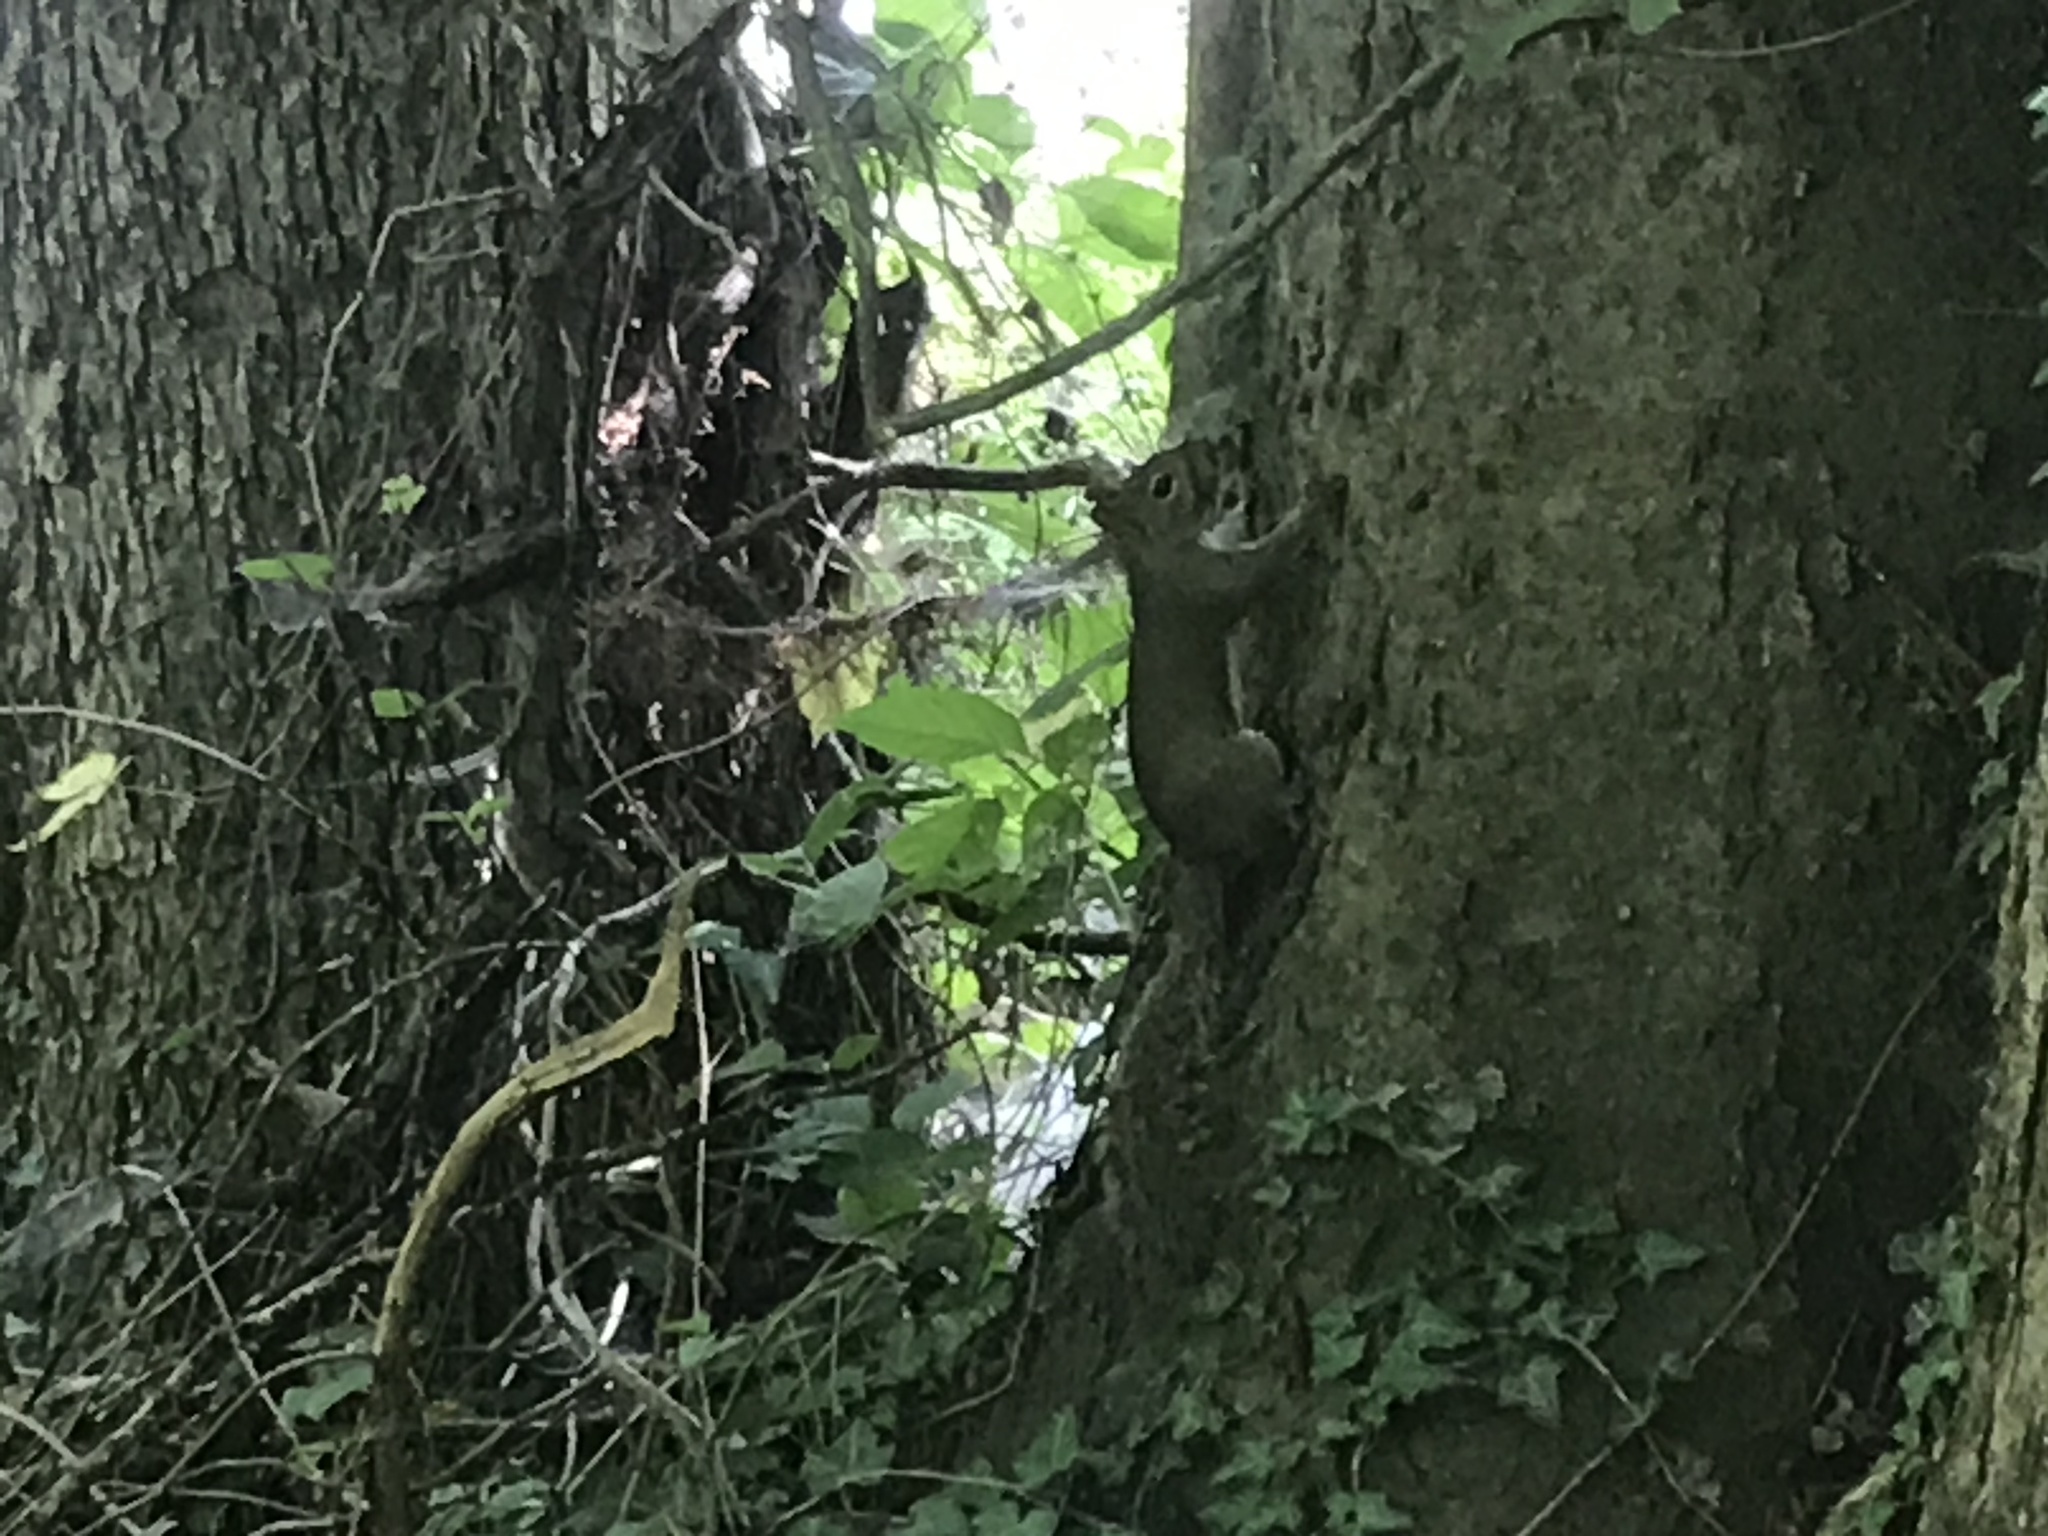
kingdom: Animalia
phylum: Chordata
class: Mammalia
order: Rodentia
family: Sciuridae
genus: Sciurus
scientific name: Sciurus carolinensis
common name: Eastern gray squirrel
